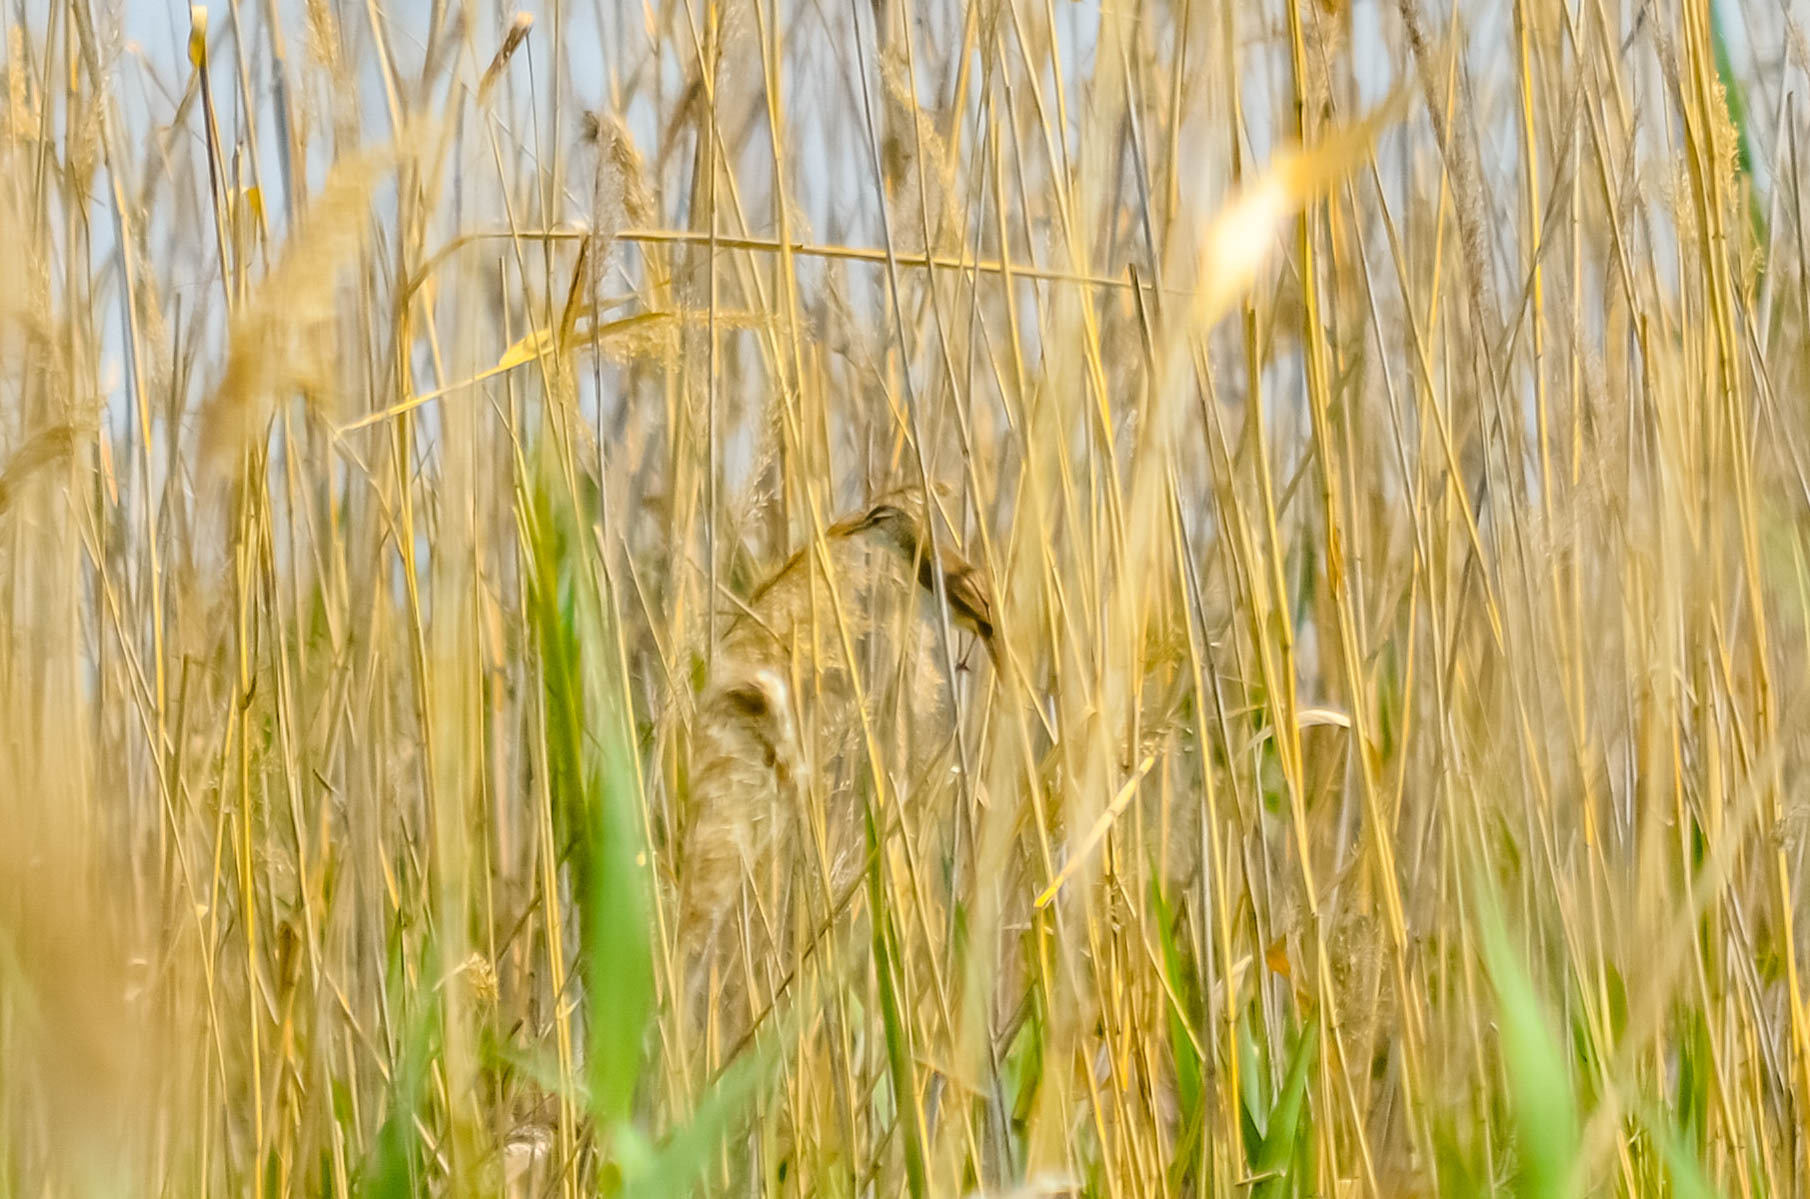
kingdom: Animalia
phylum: Chordata
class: Aves
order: Passeriformes
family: Acrocephalidae
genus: Acrocephalus
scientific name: Acrocephalus schoenobaenus
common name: Sedge warbler
